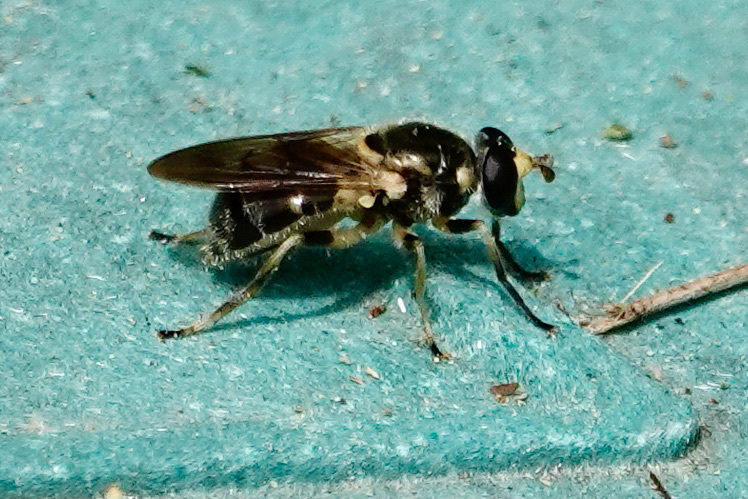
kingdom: Animalia
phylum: Arthropoda
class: Insecta
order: Diptera
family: Syrphidae
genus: Blera
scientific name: Blera pictipes
